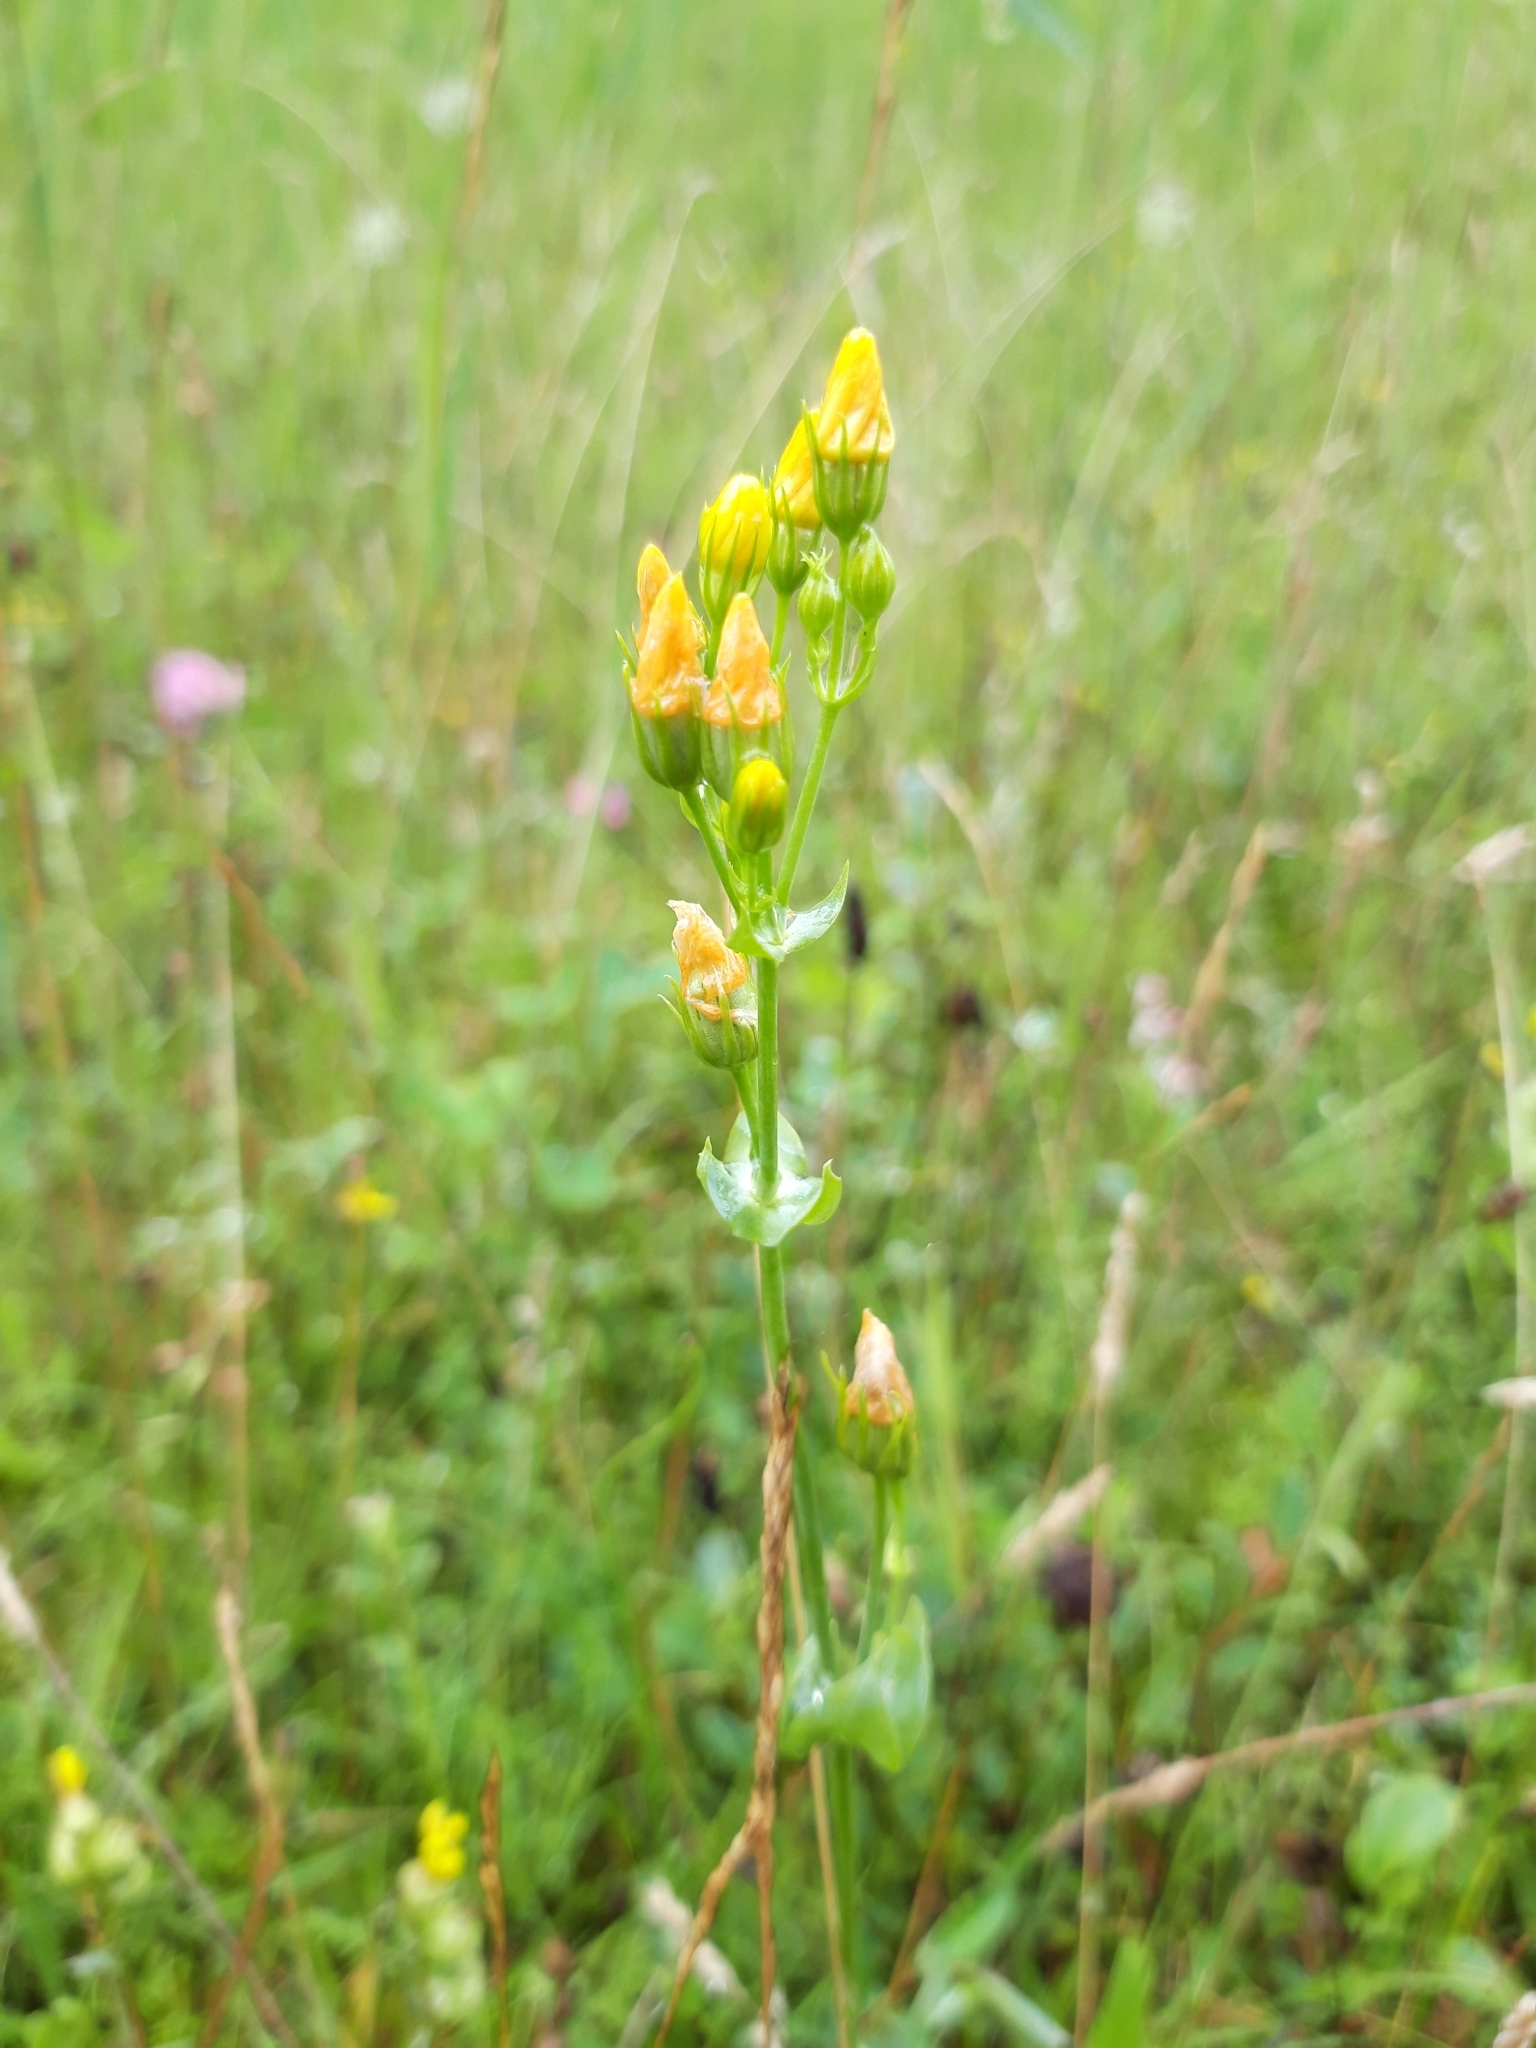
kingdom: Plantae
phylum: Tracheophyta
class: Magnoliopsida
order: Gentianales
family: Gentianaceae
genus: Blackstonia
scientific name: Blackstonia perfoliata
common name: Yellow-wort
